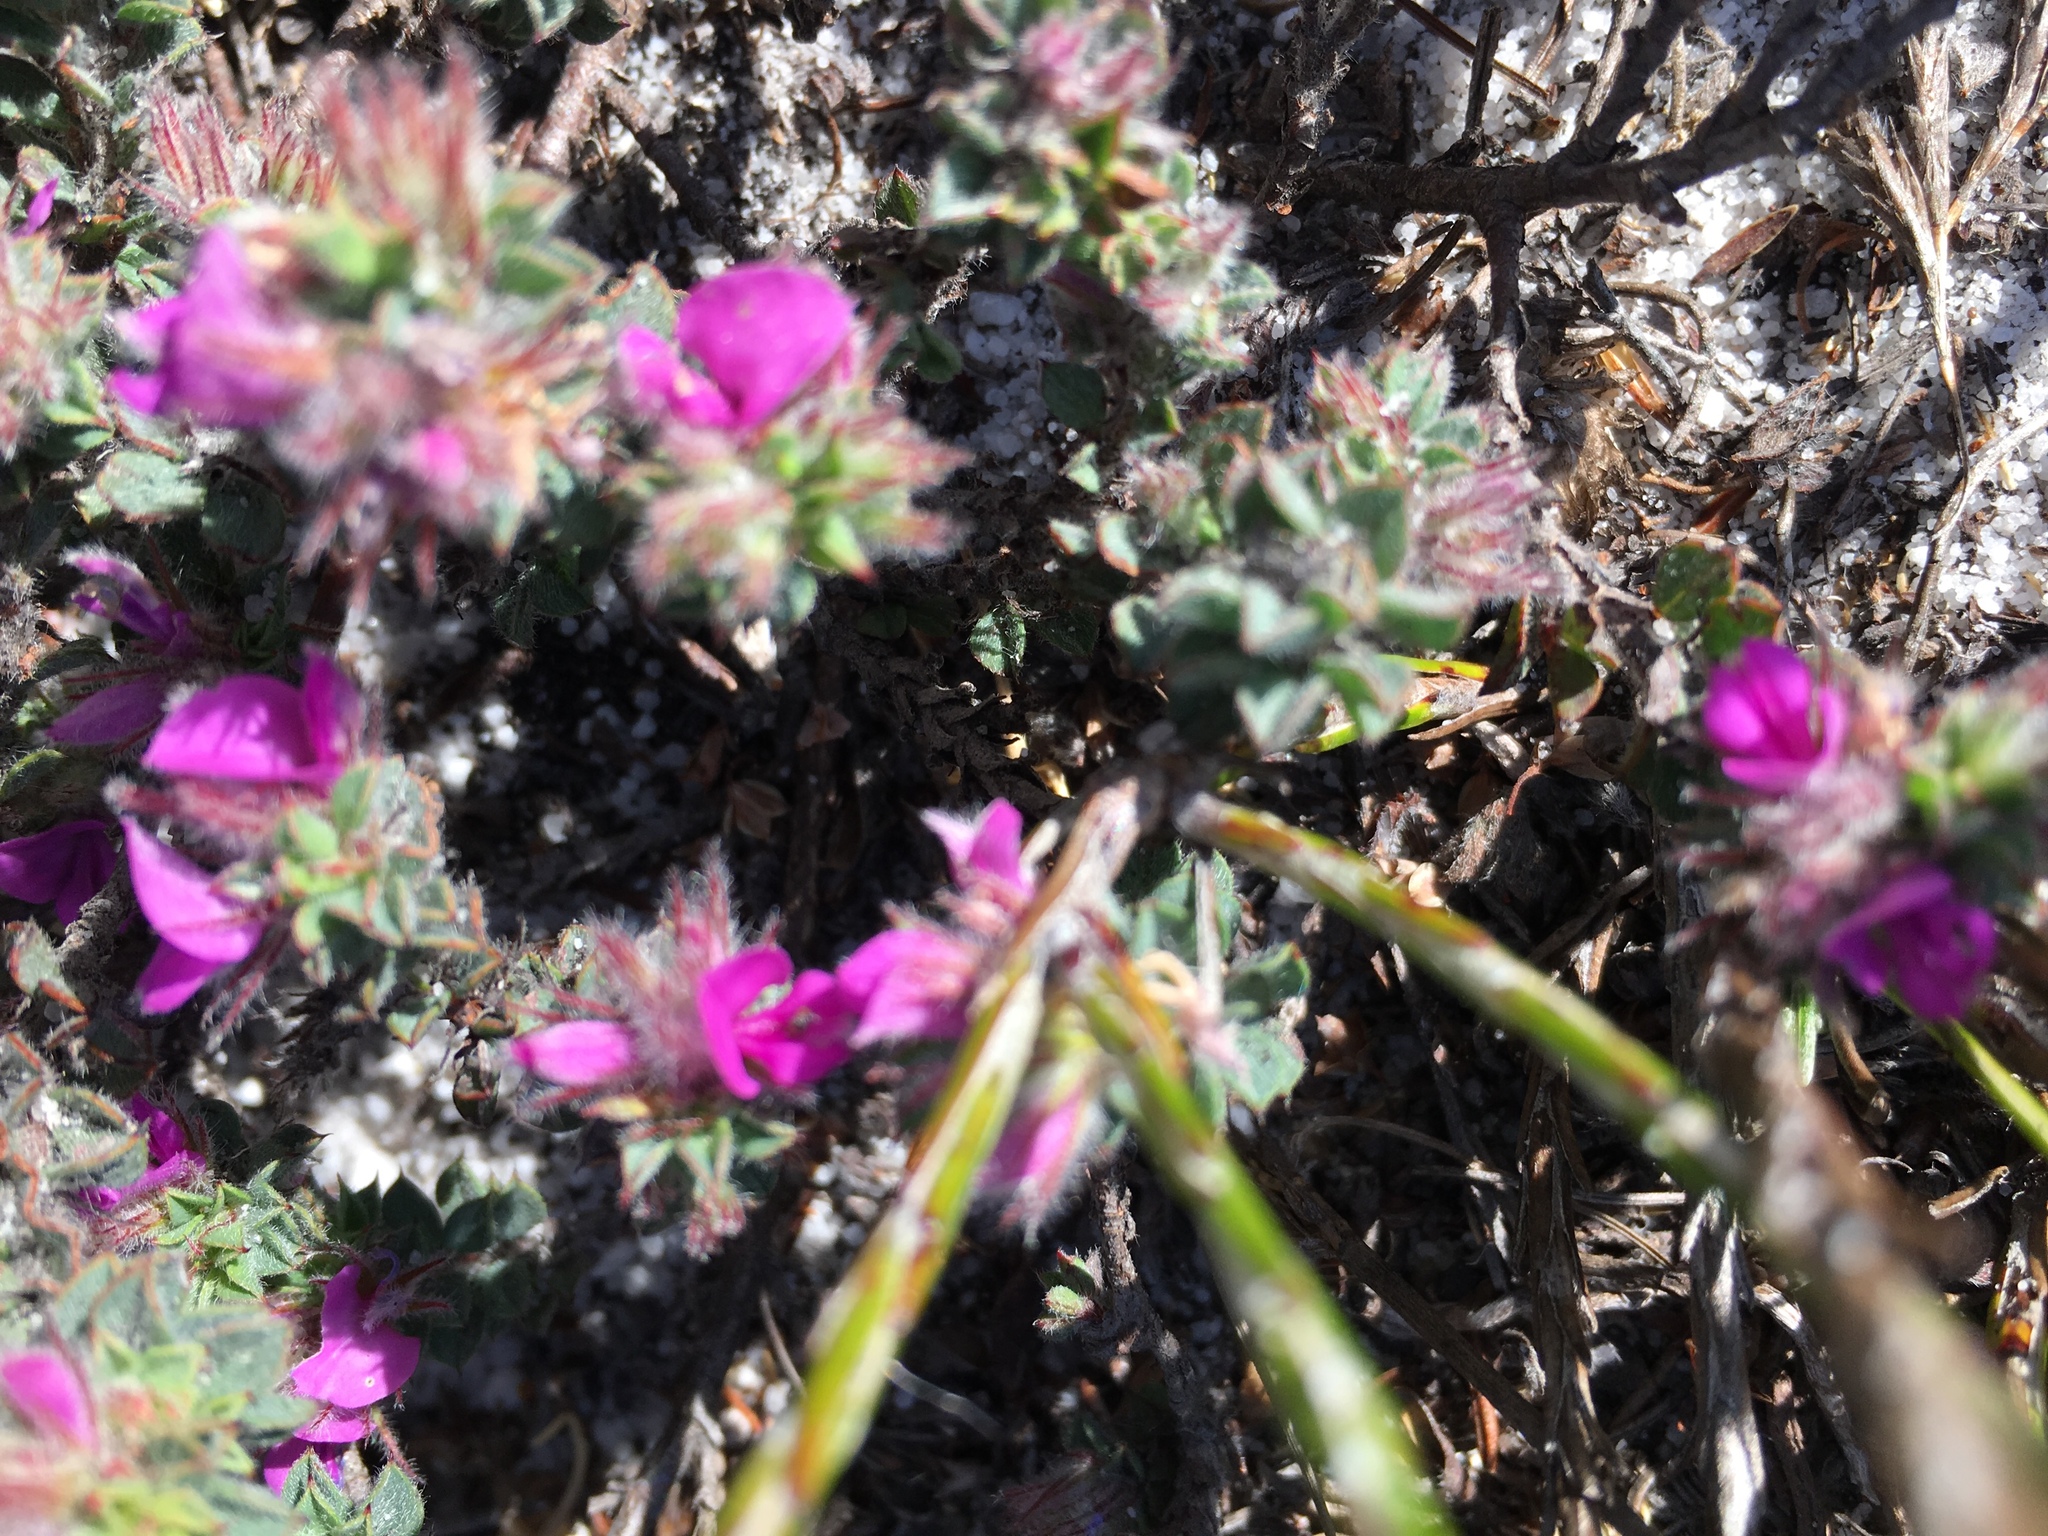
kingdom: Plantae
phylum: Tracheophyta
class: Magnoliopsida
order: Fabales
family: Fabaceae
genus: Indigofera
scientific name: Indigofera glomerata
